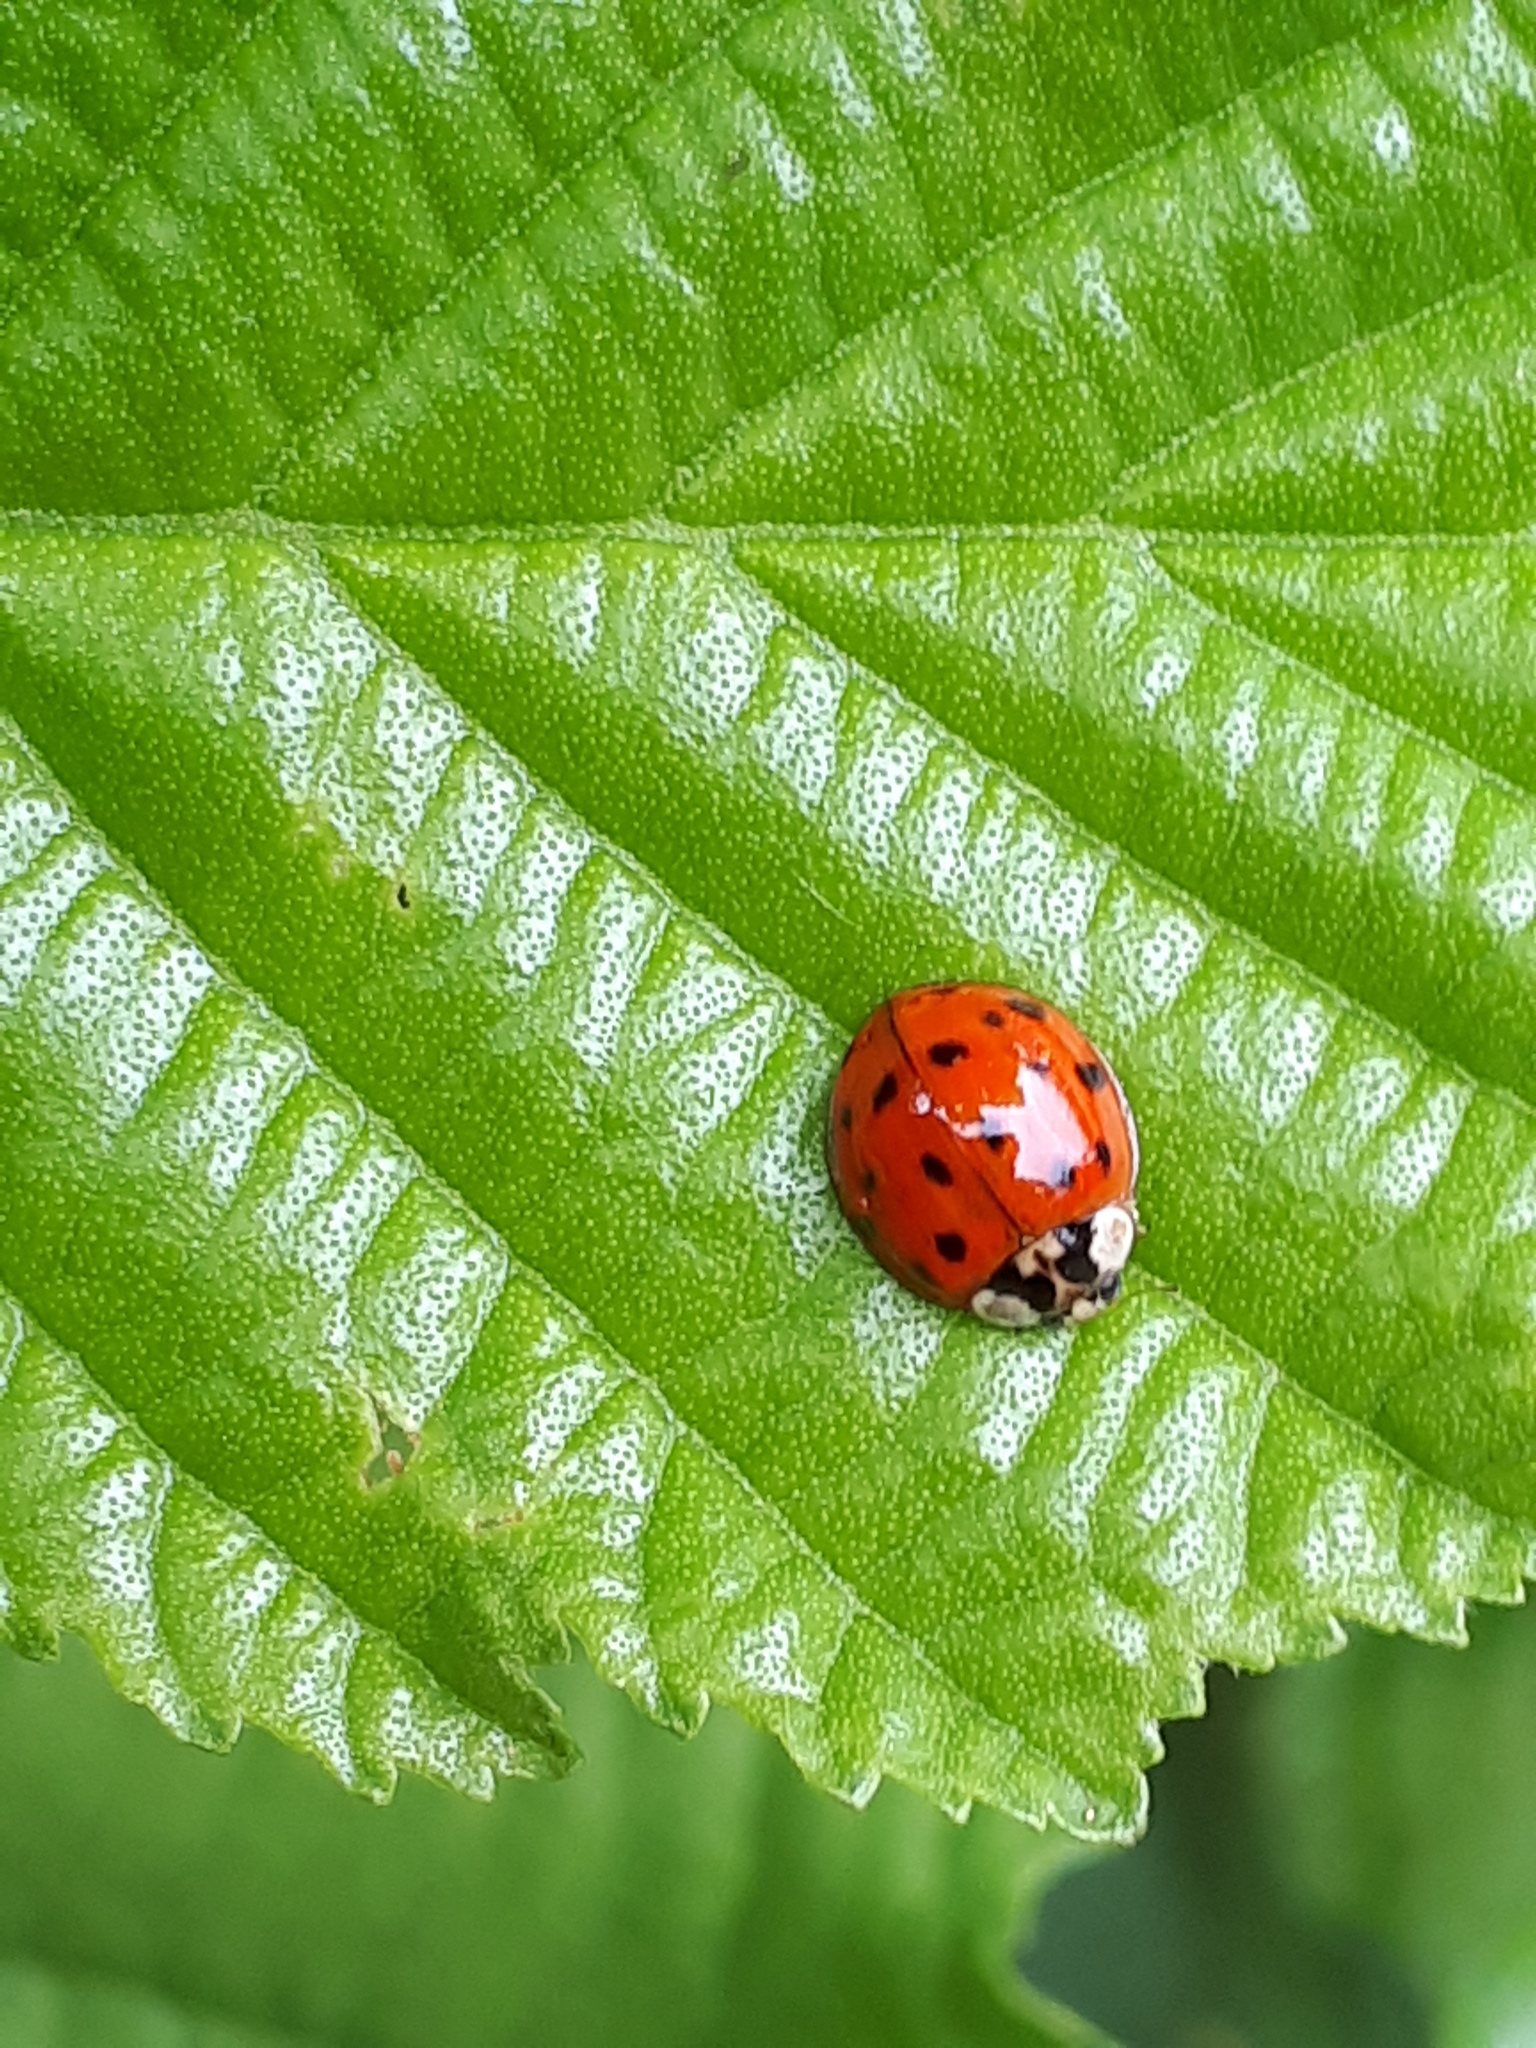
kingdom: Animalia
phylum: Arthropoda
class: Insecta
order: Coleoptera
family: Coccinellidae
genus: Harmonia
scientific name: Harmonia axyridis
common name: Harlequin ladybird
